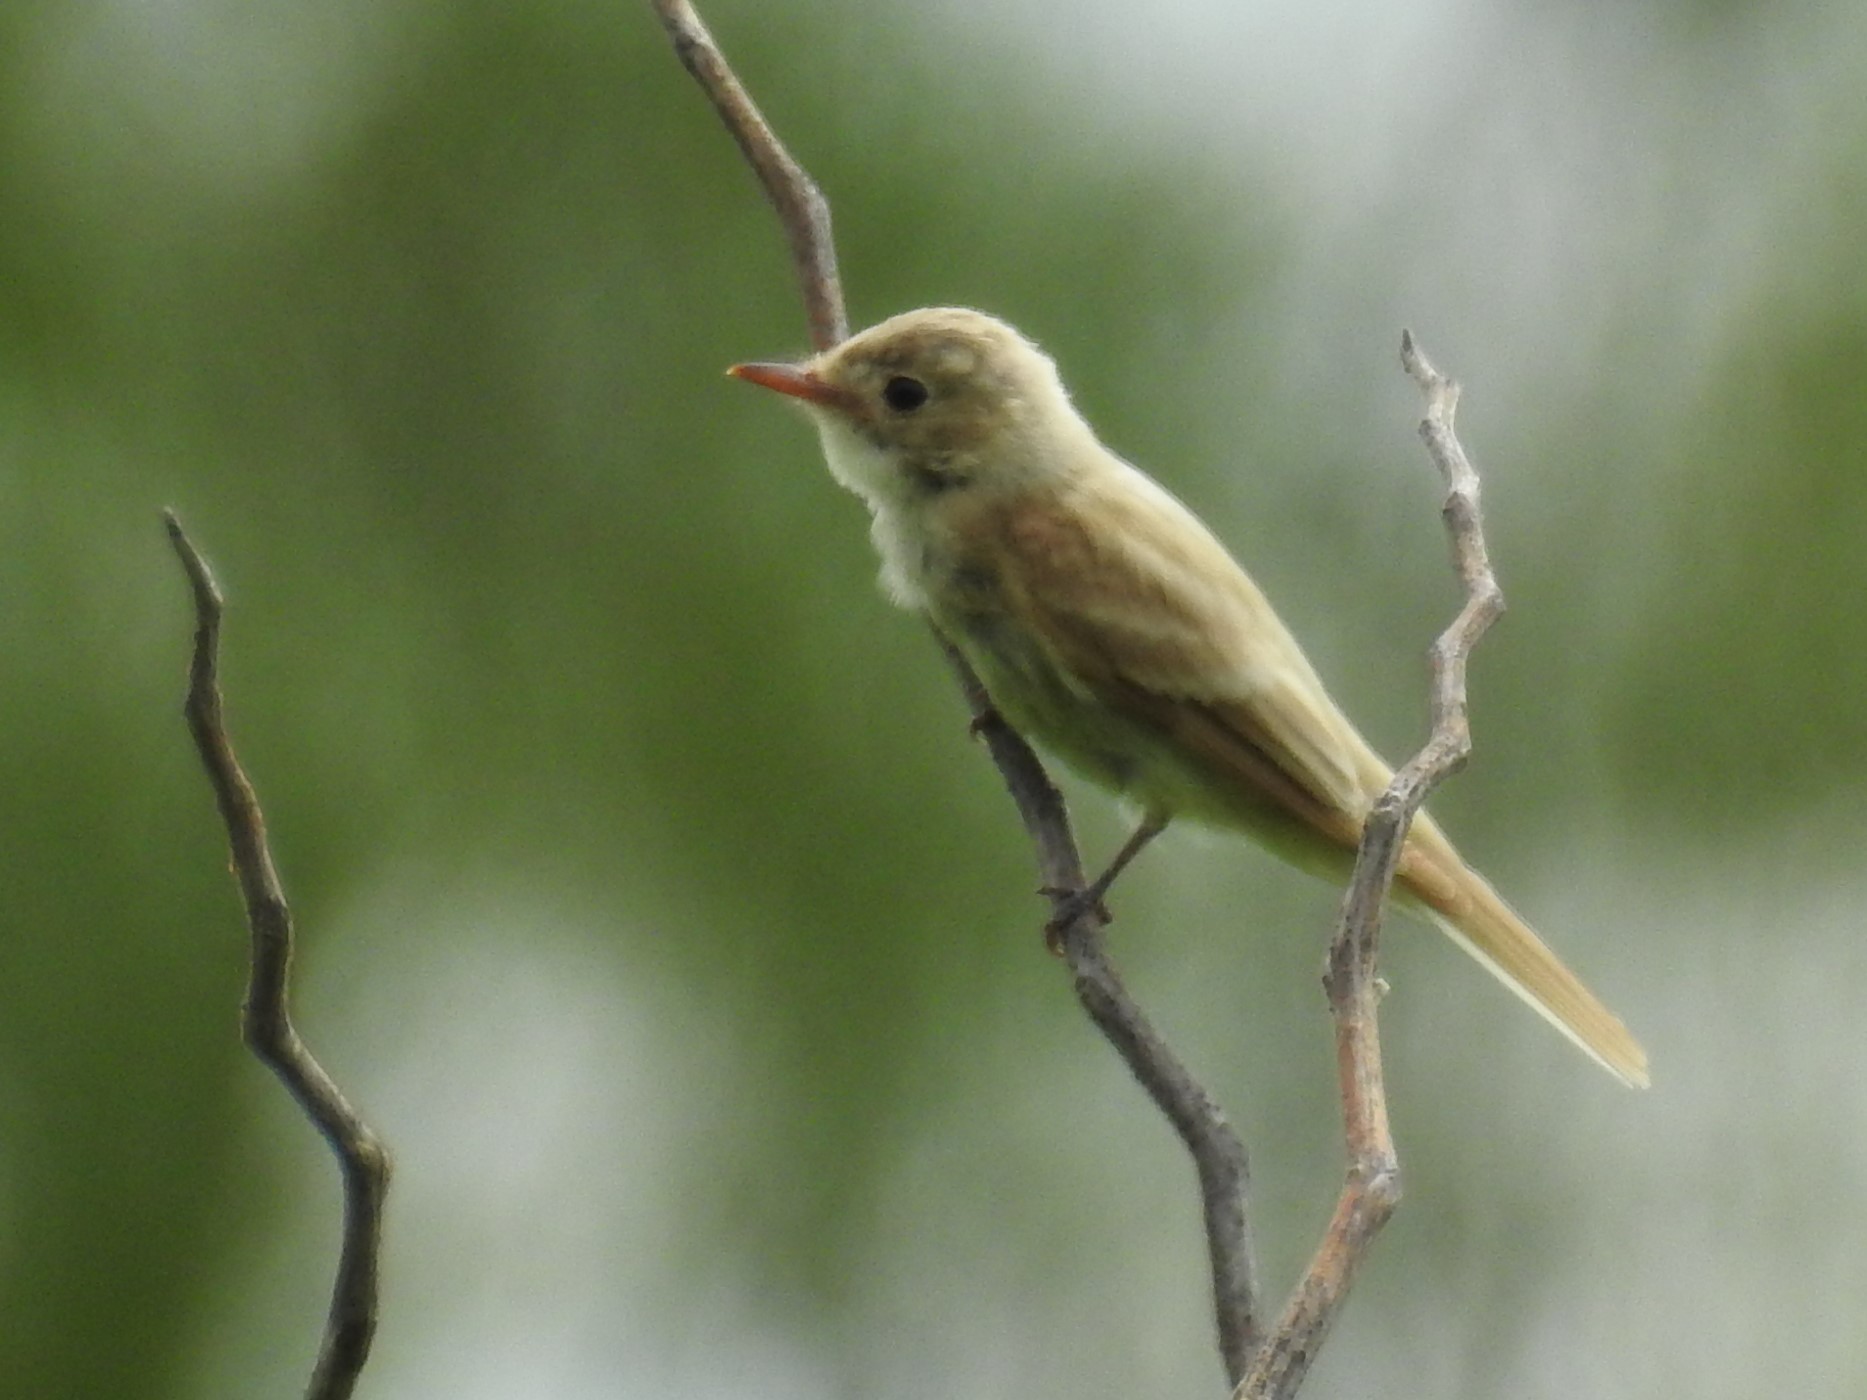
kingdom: Animalia
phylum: Chordata
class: Aves
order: Passeriformes
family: Tyrannidae
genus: Empidonax
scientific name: Empidonax traillii
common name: Willow flycatcher
